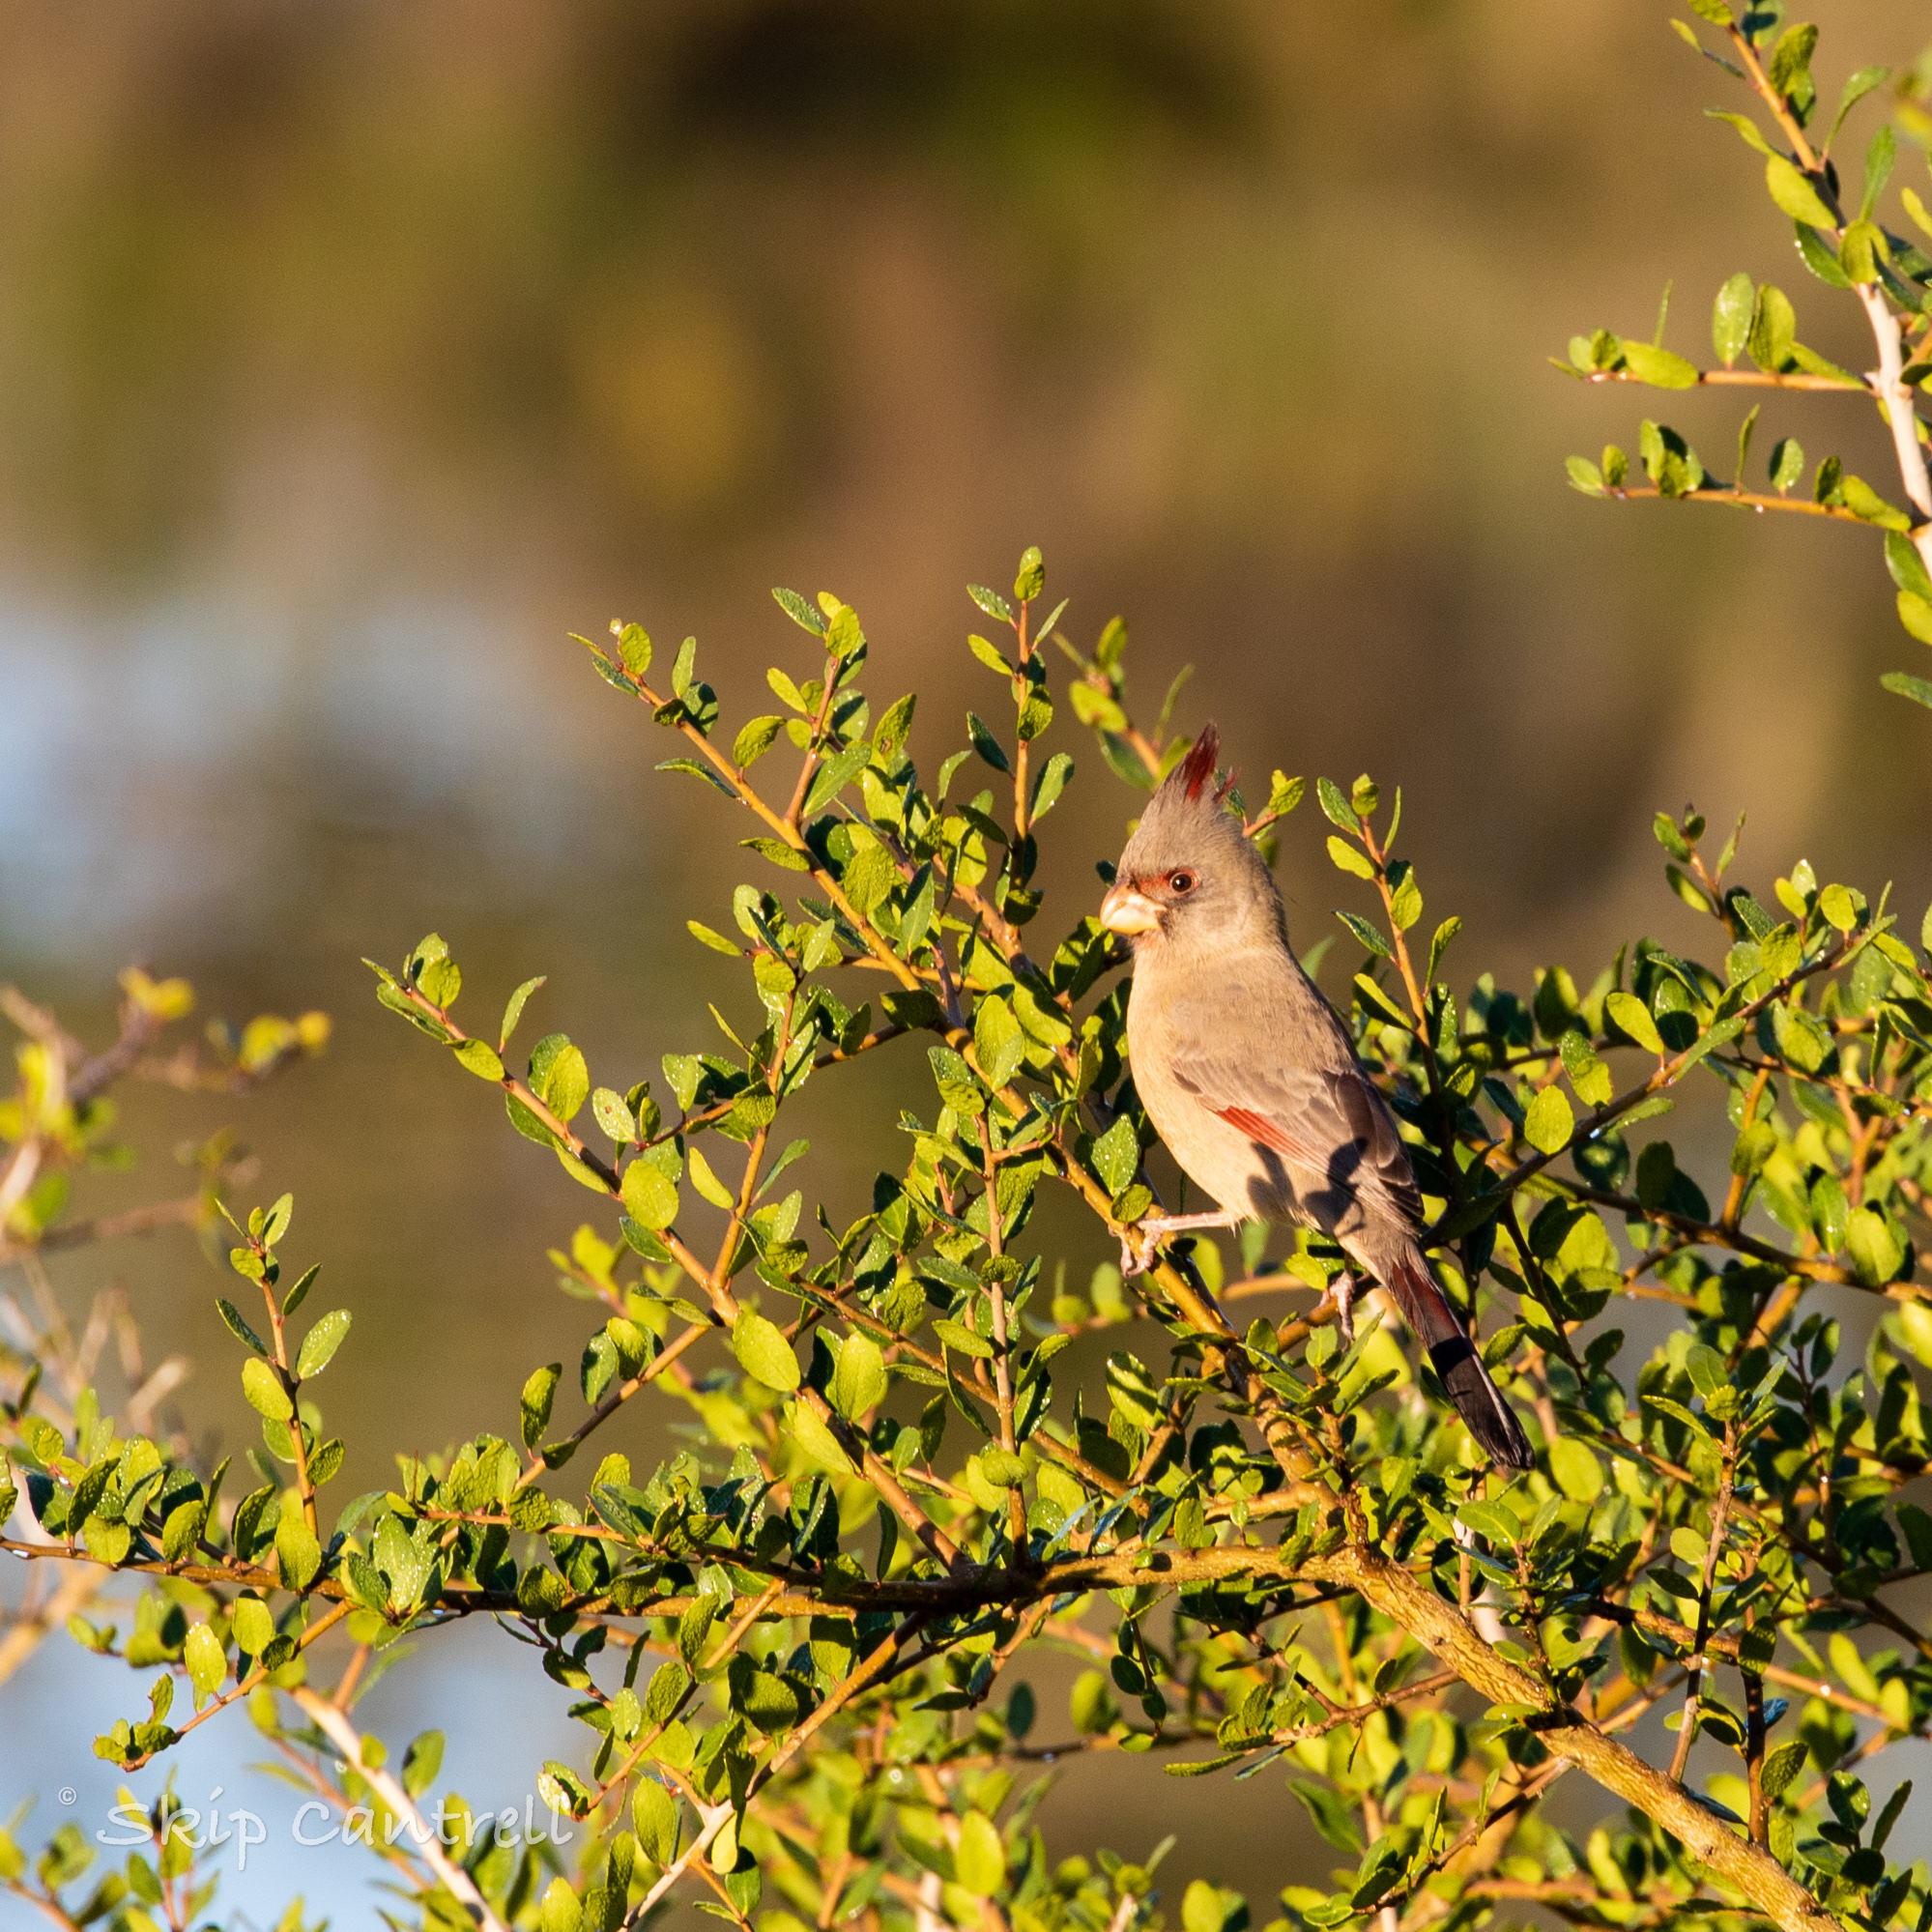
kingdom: Animalia
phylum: Chordata
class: Aves
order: Passeriformes
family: Cardinalidae
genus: Cardinalis
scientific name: Cardinalis sinuatus
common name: Pyrrhuloxia
